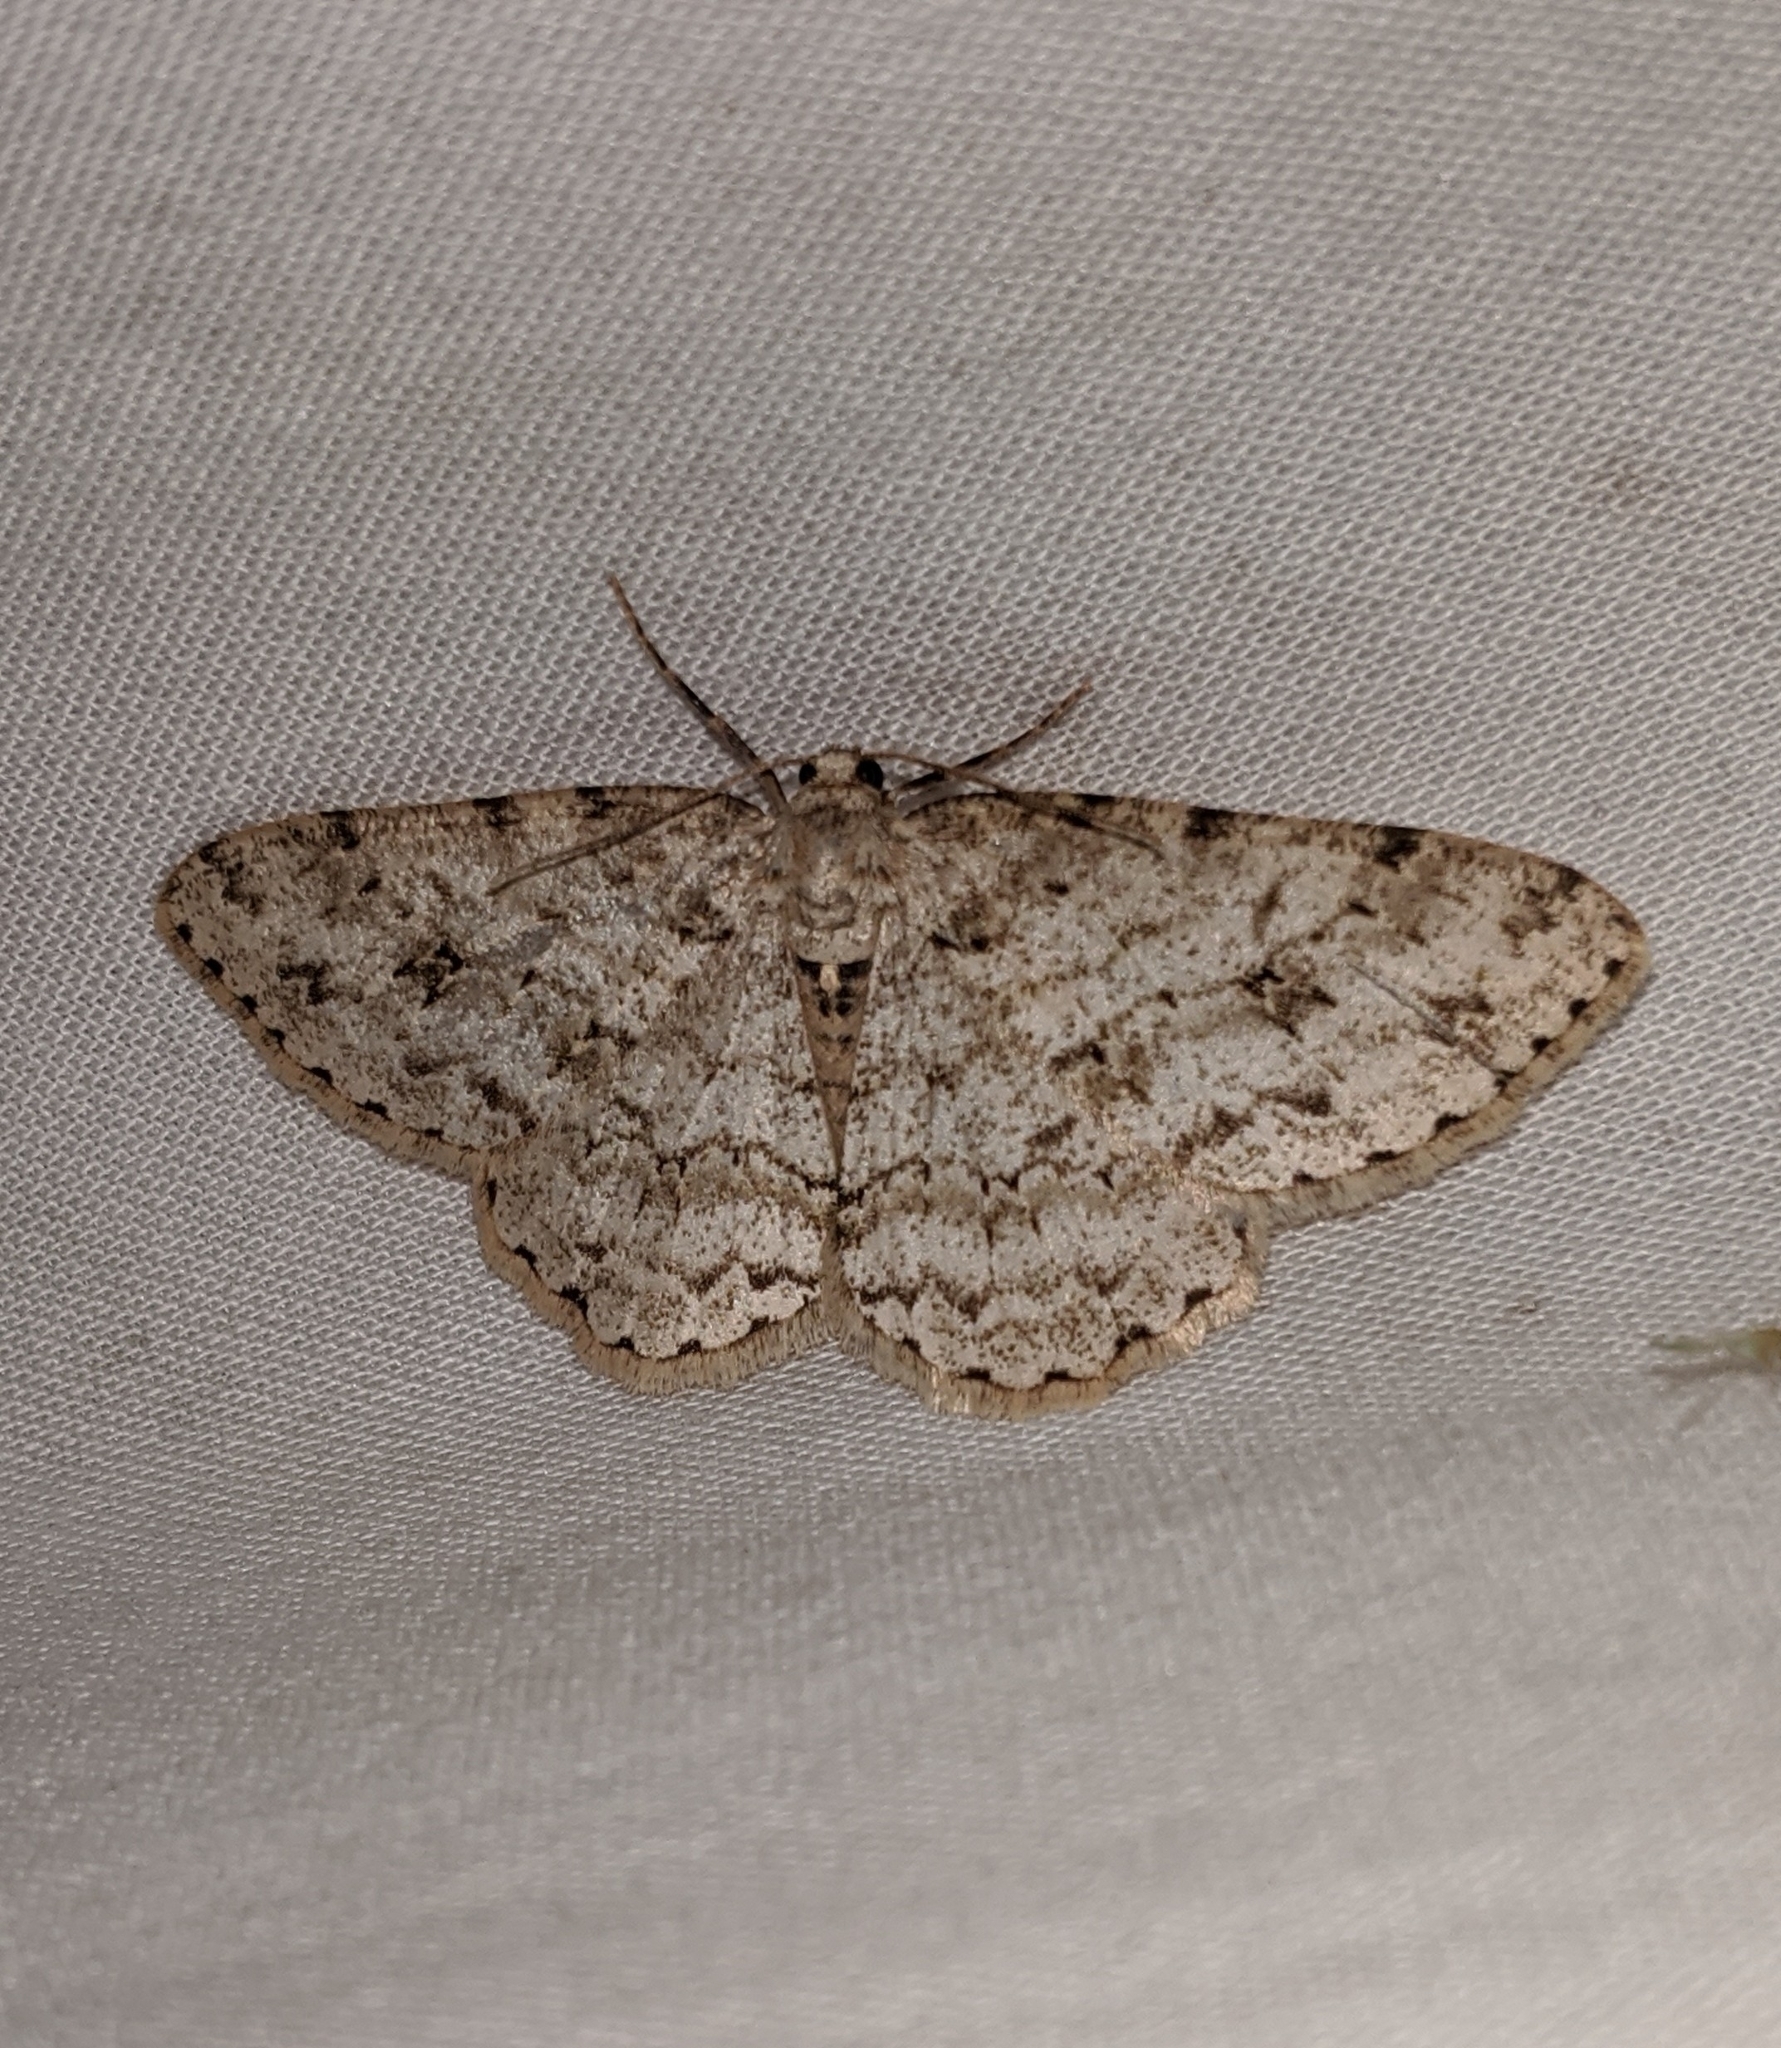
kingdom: Animalia
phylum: Arthropoda
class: Insecta
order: Lepidoptera
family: Geometridae
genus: Ectropis
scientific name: Ectropis crepuscularia
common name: Engrailed
